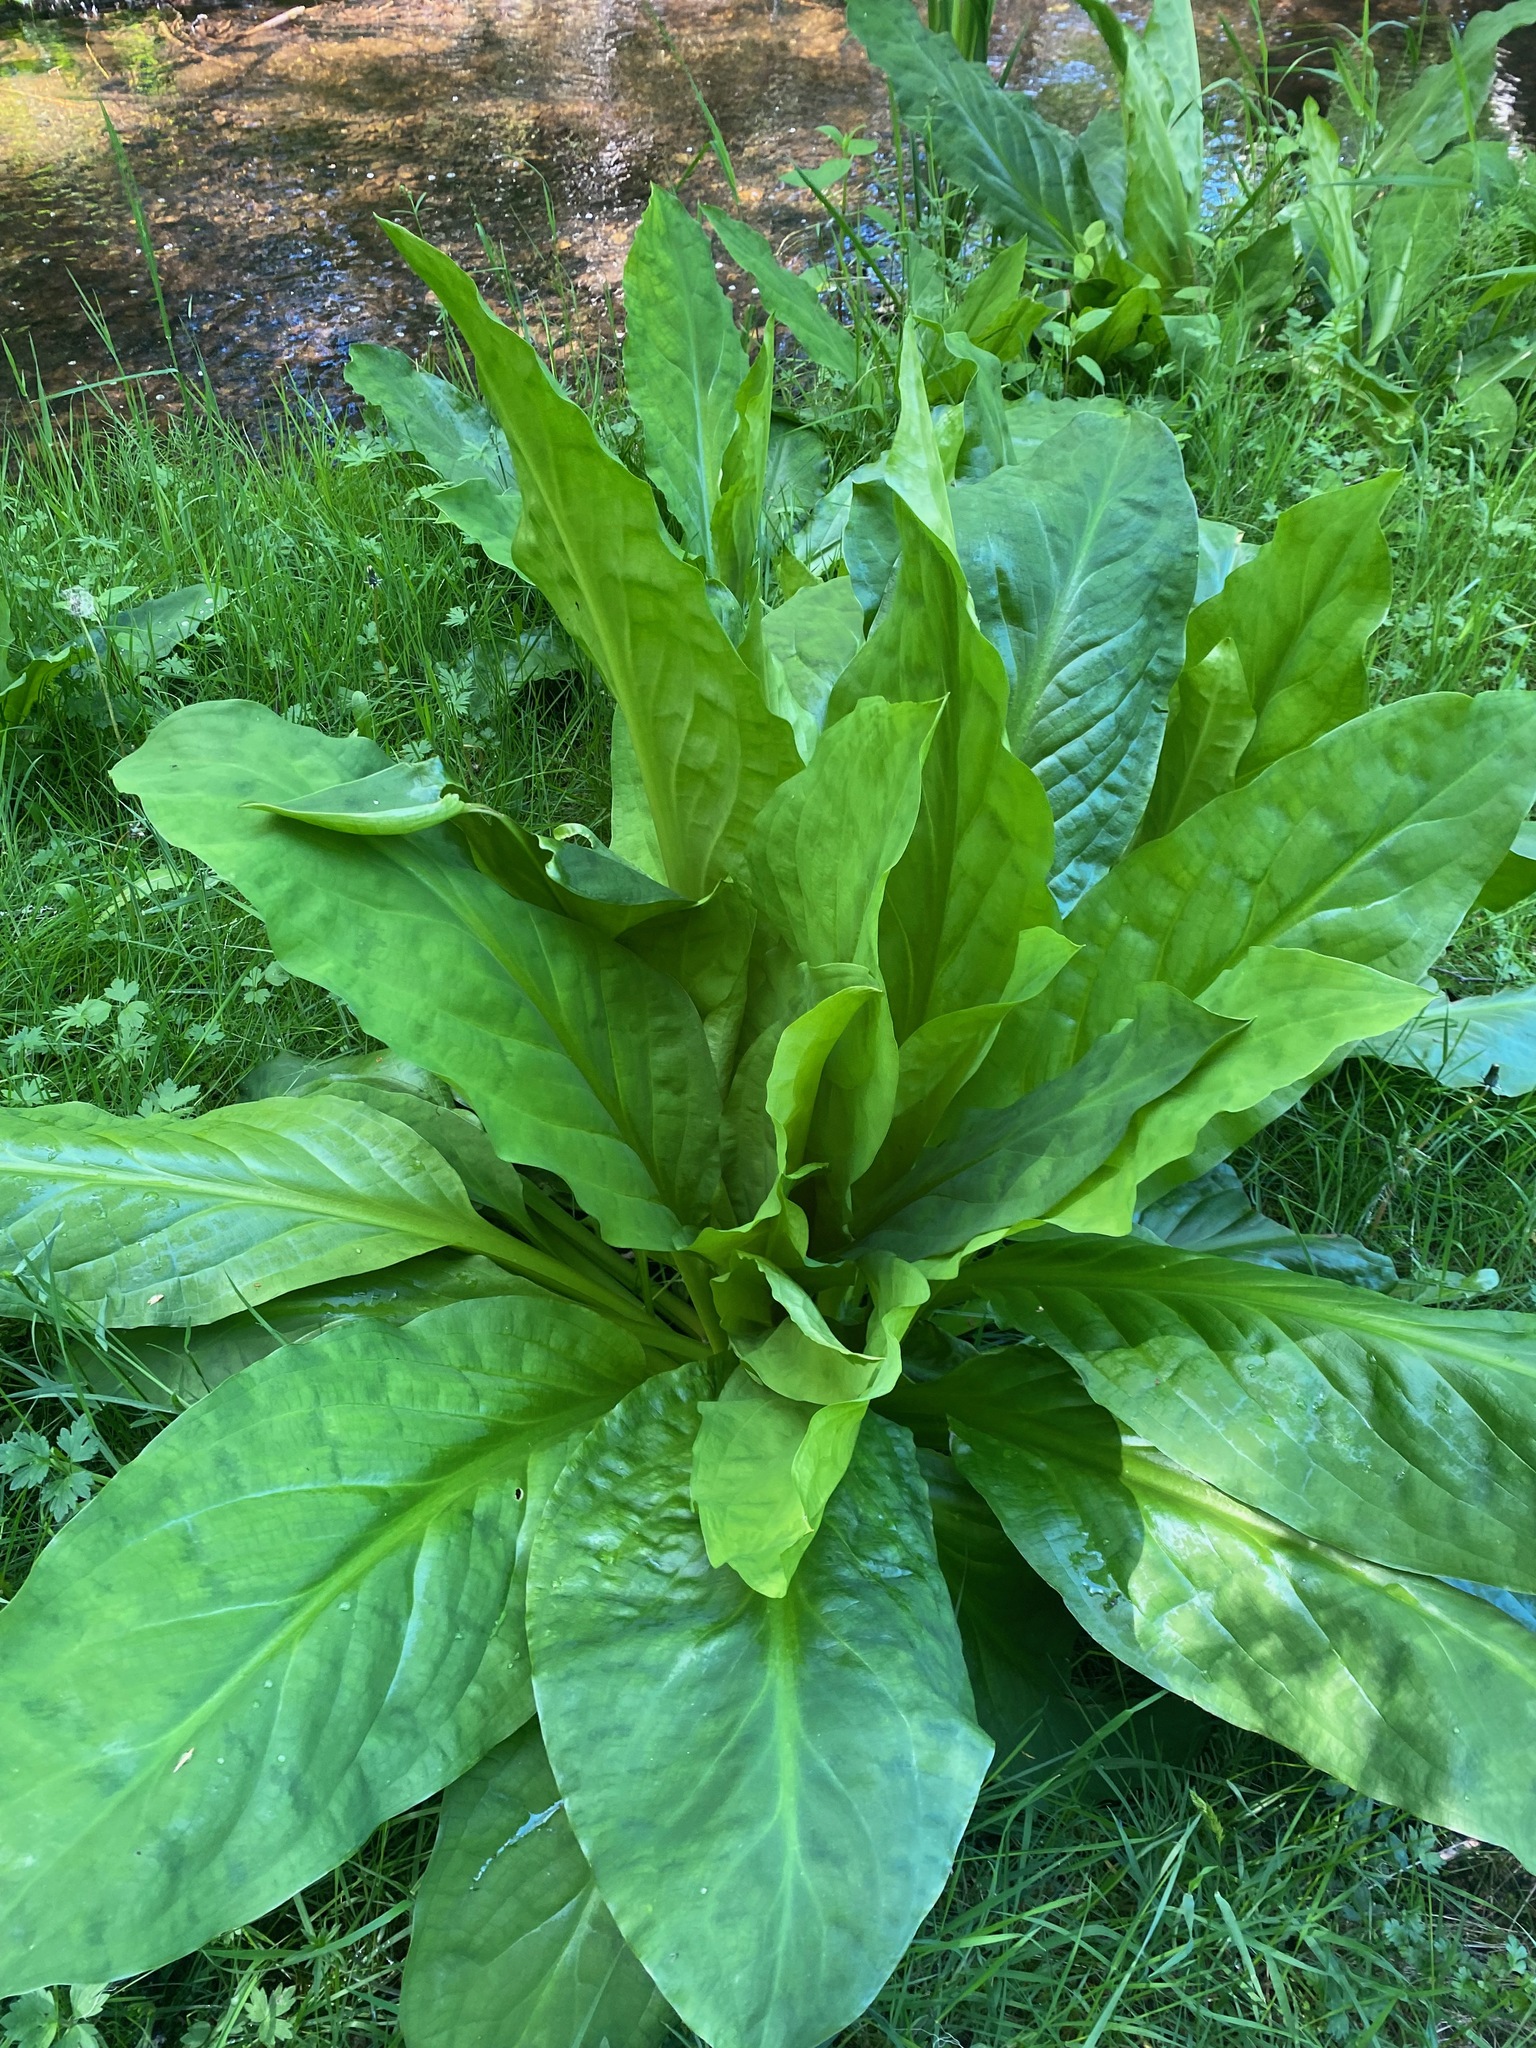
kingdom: Plantae
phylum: Tracheophyta
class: Liliopsida
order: Alismatales
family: Araceae
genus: Lysichiton
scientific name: Lysichiton americanus
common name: American skunk cabbage
